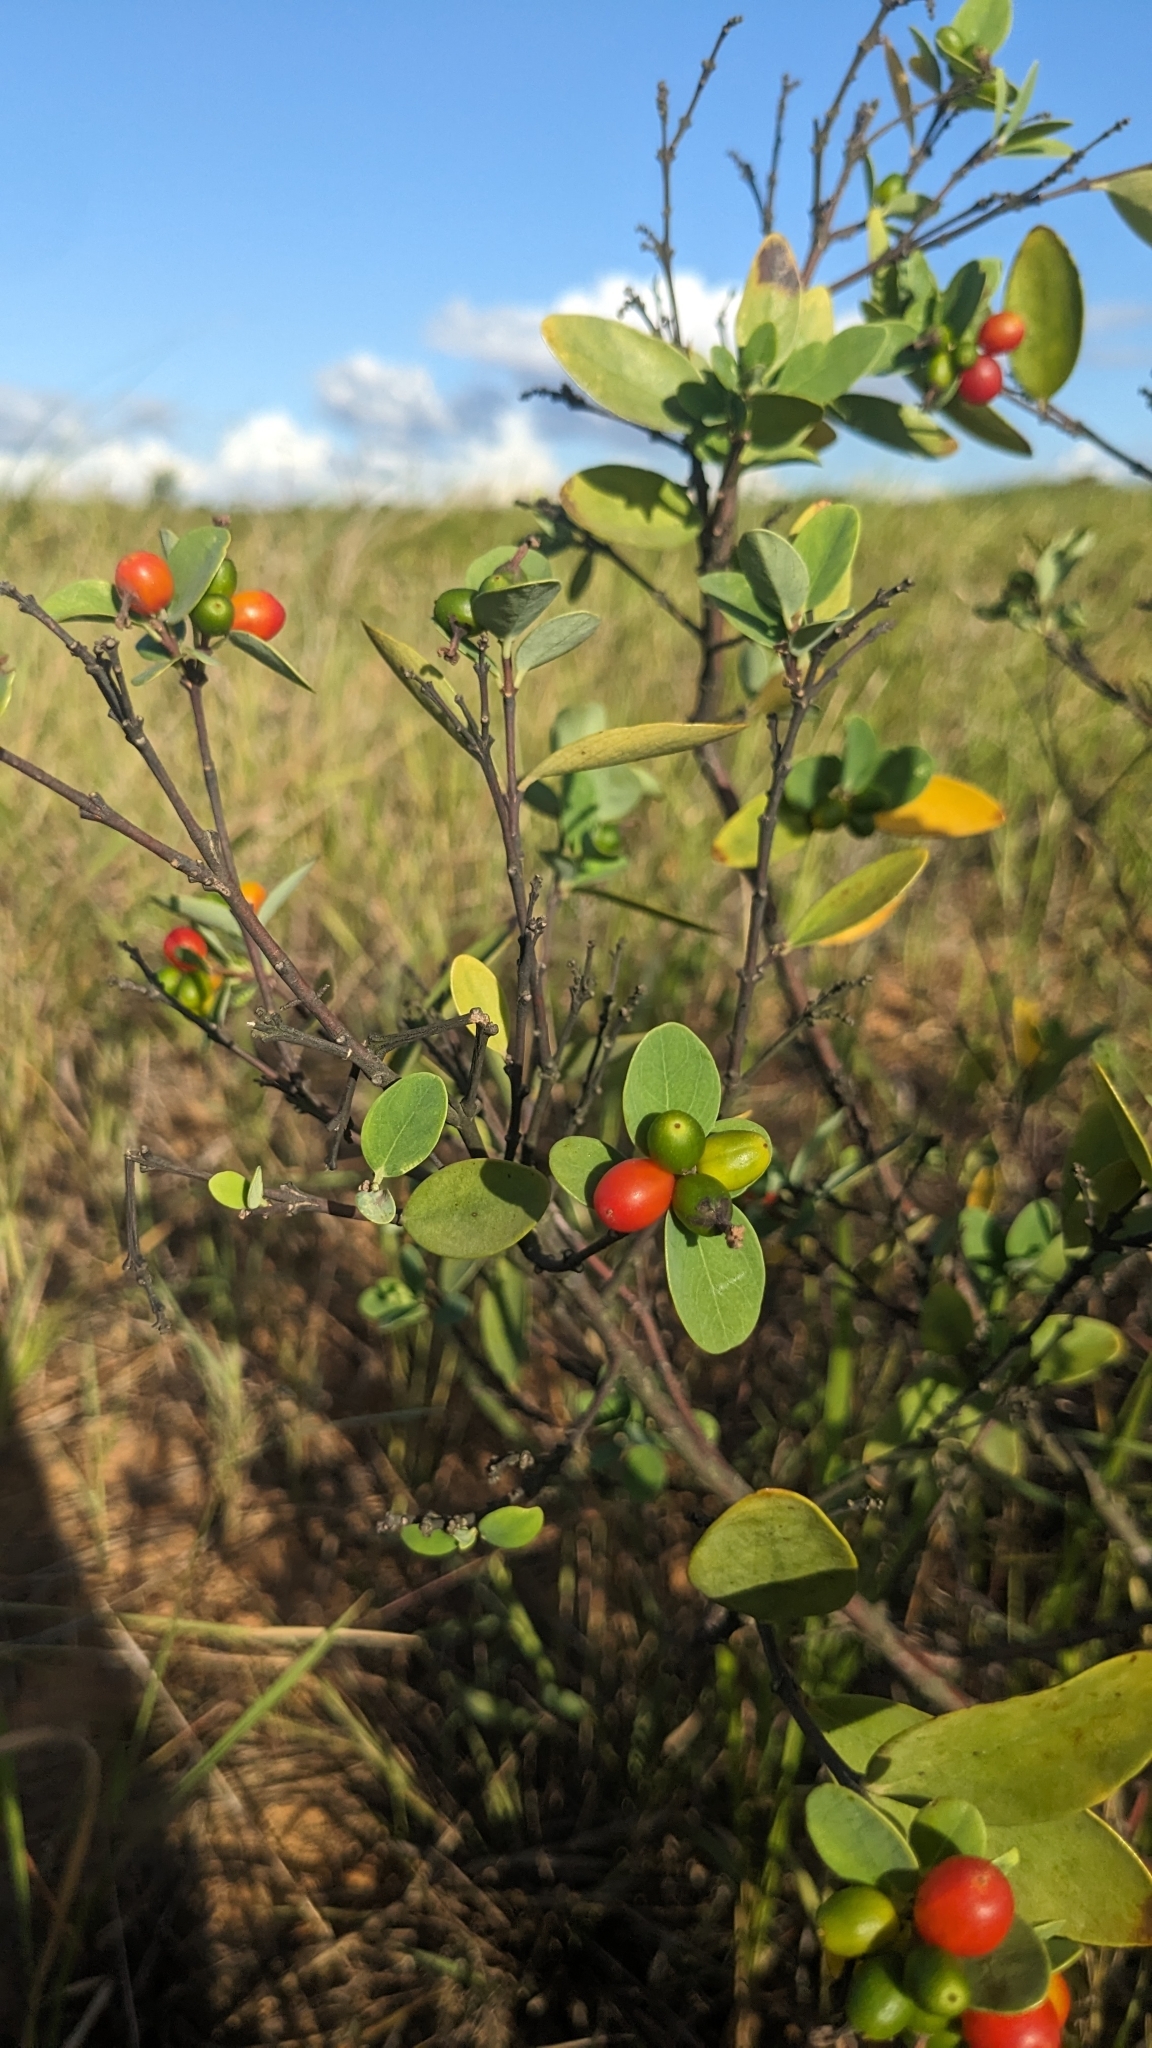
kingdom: Plantae
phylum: Tracheophyta
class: Magnoliopsida
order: Malvales
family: Thymelaeaceae
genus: Wikstroemia
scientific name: Wikstroemia indica
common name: Tiebush
